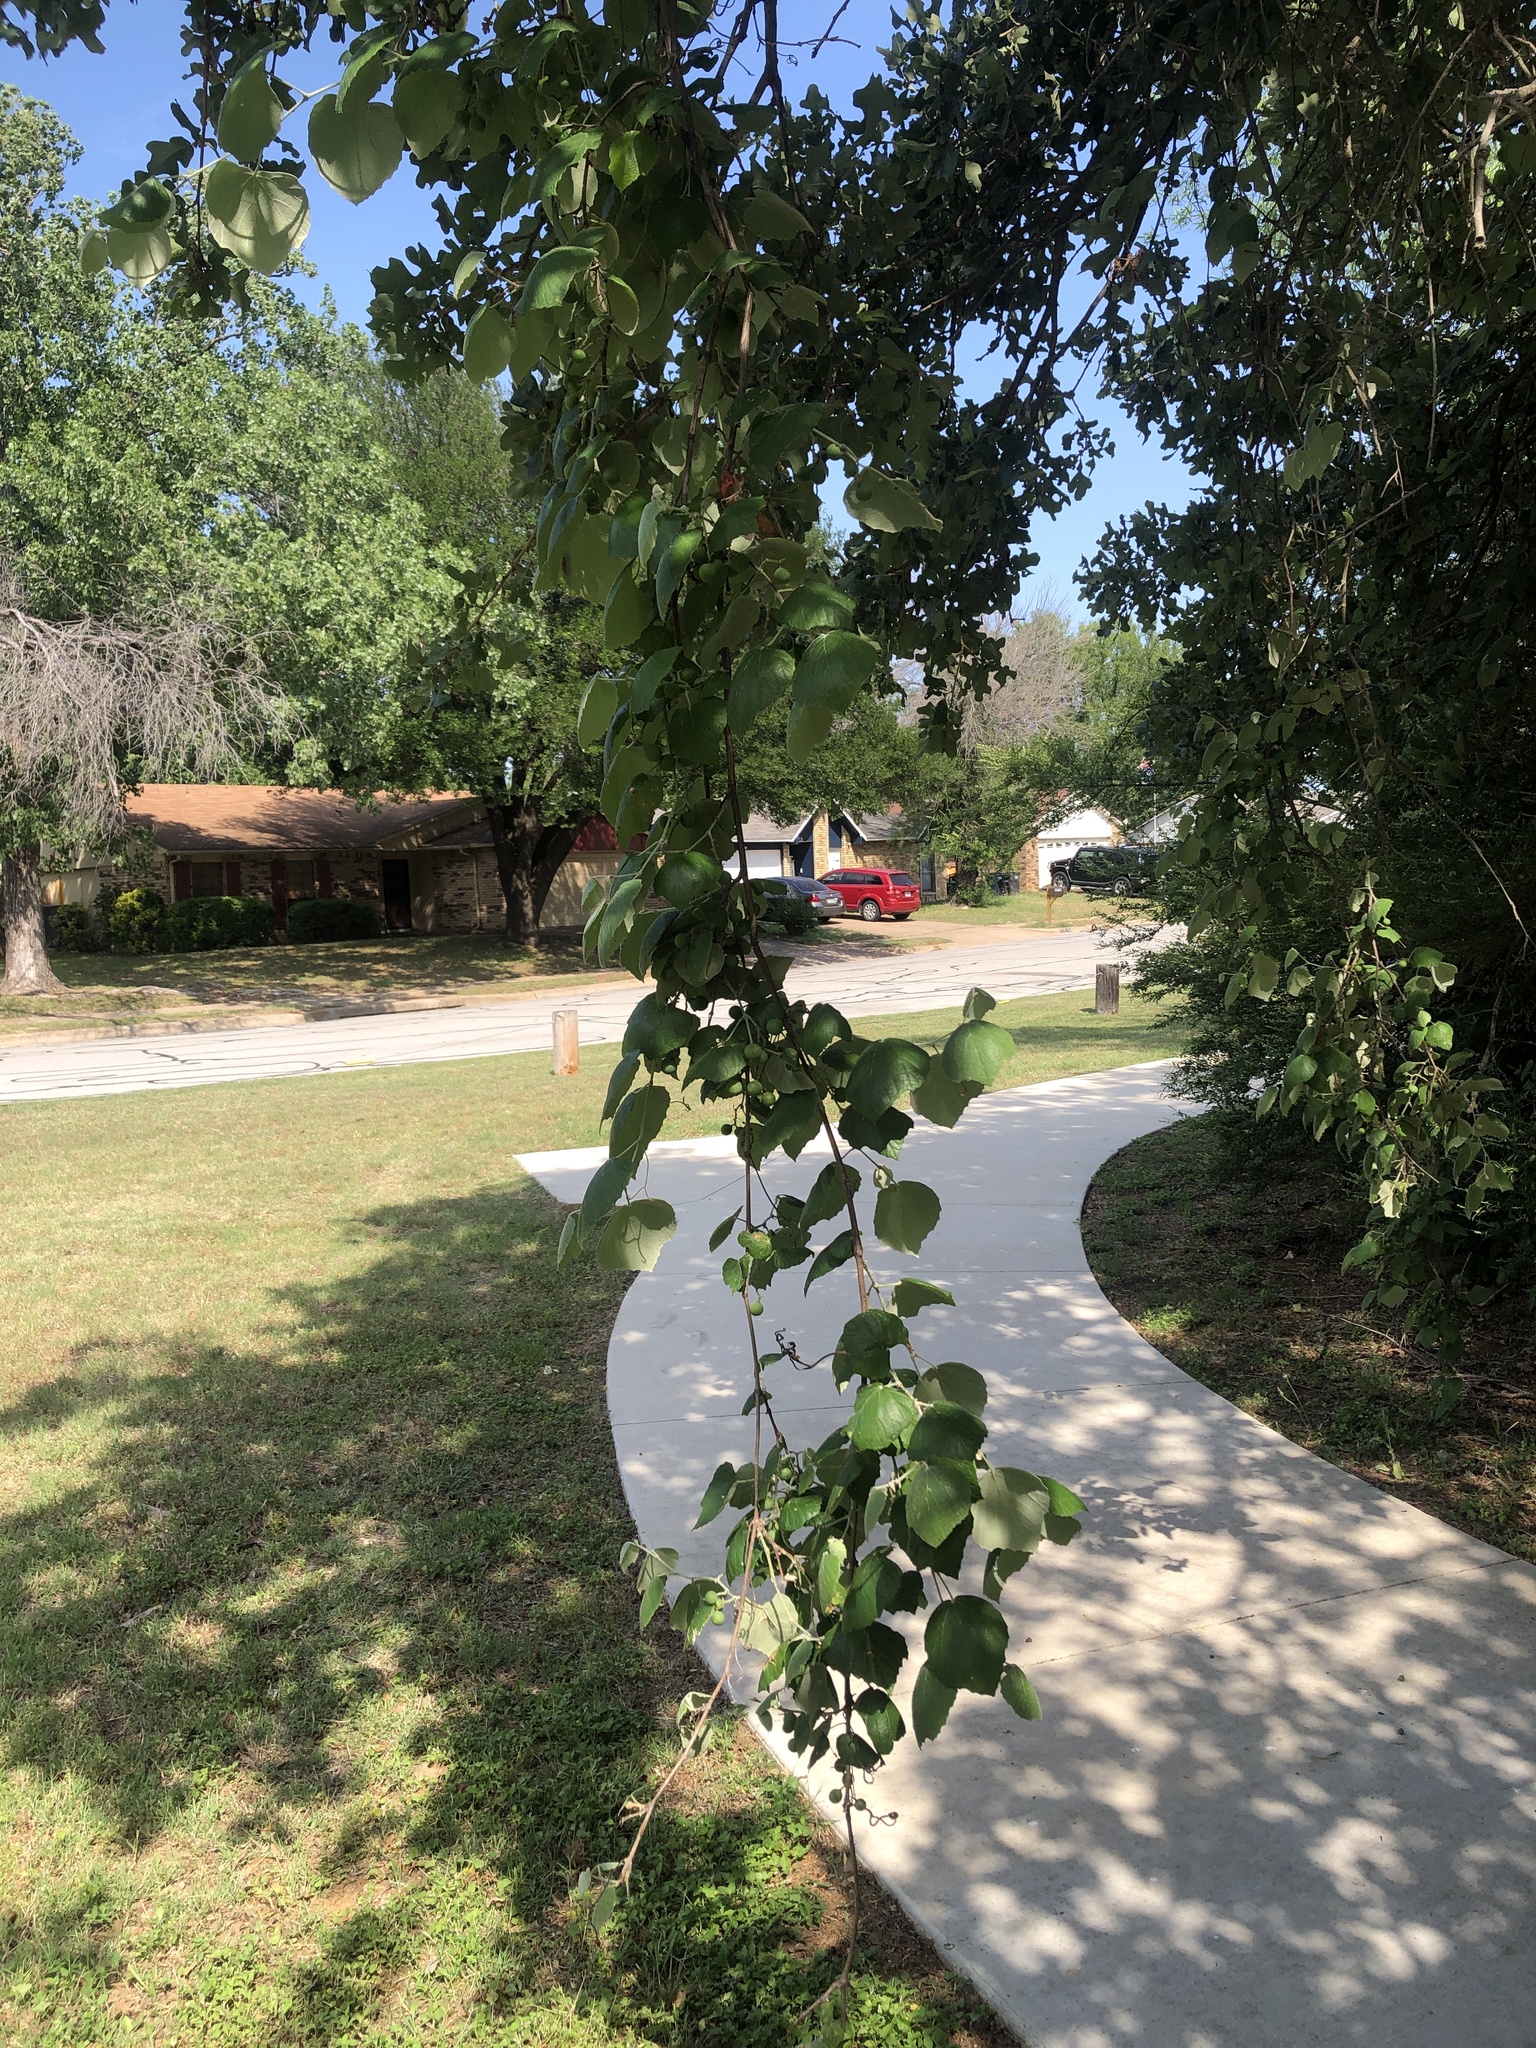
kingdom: Plantae
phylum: Tracheophyta
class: Magnoliopsida
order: Vitales
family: Vitaceae
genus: Vitis
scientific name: Vitis mustangensis
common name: Mustang grape
